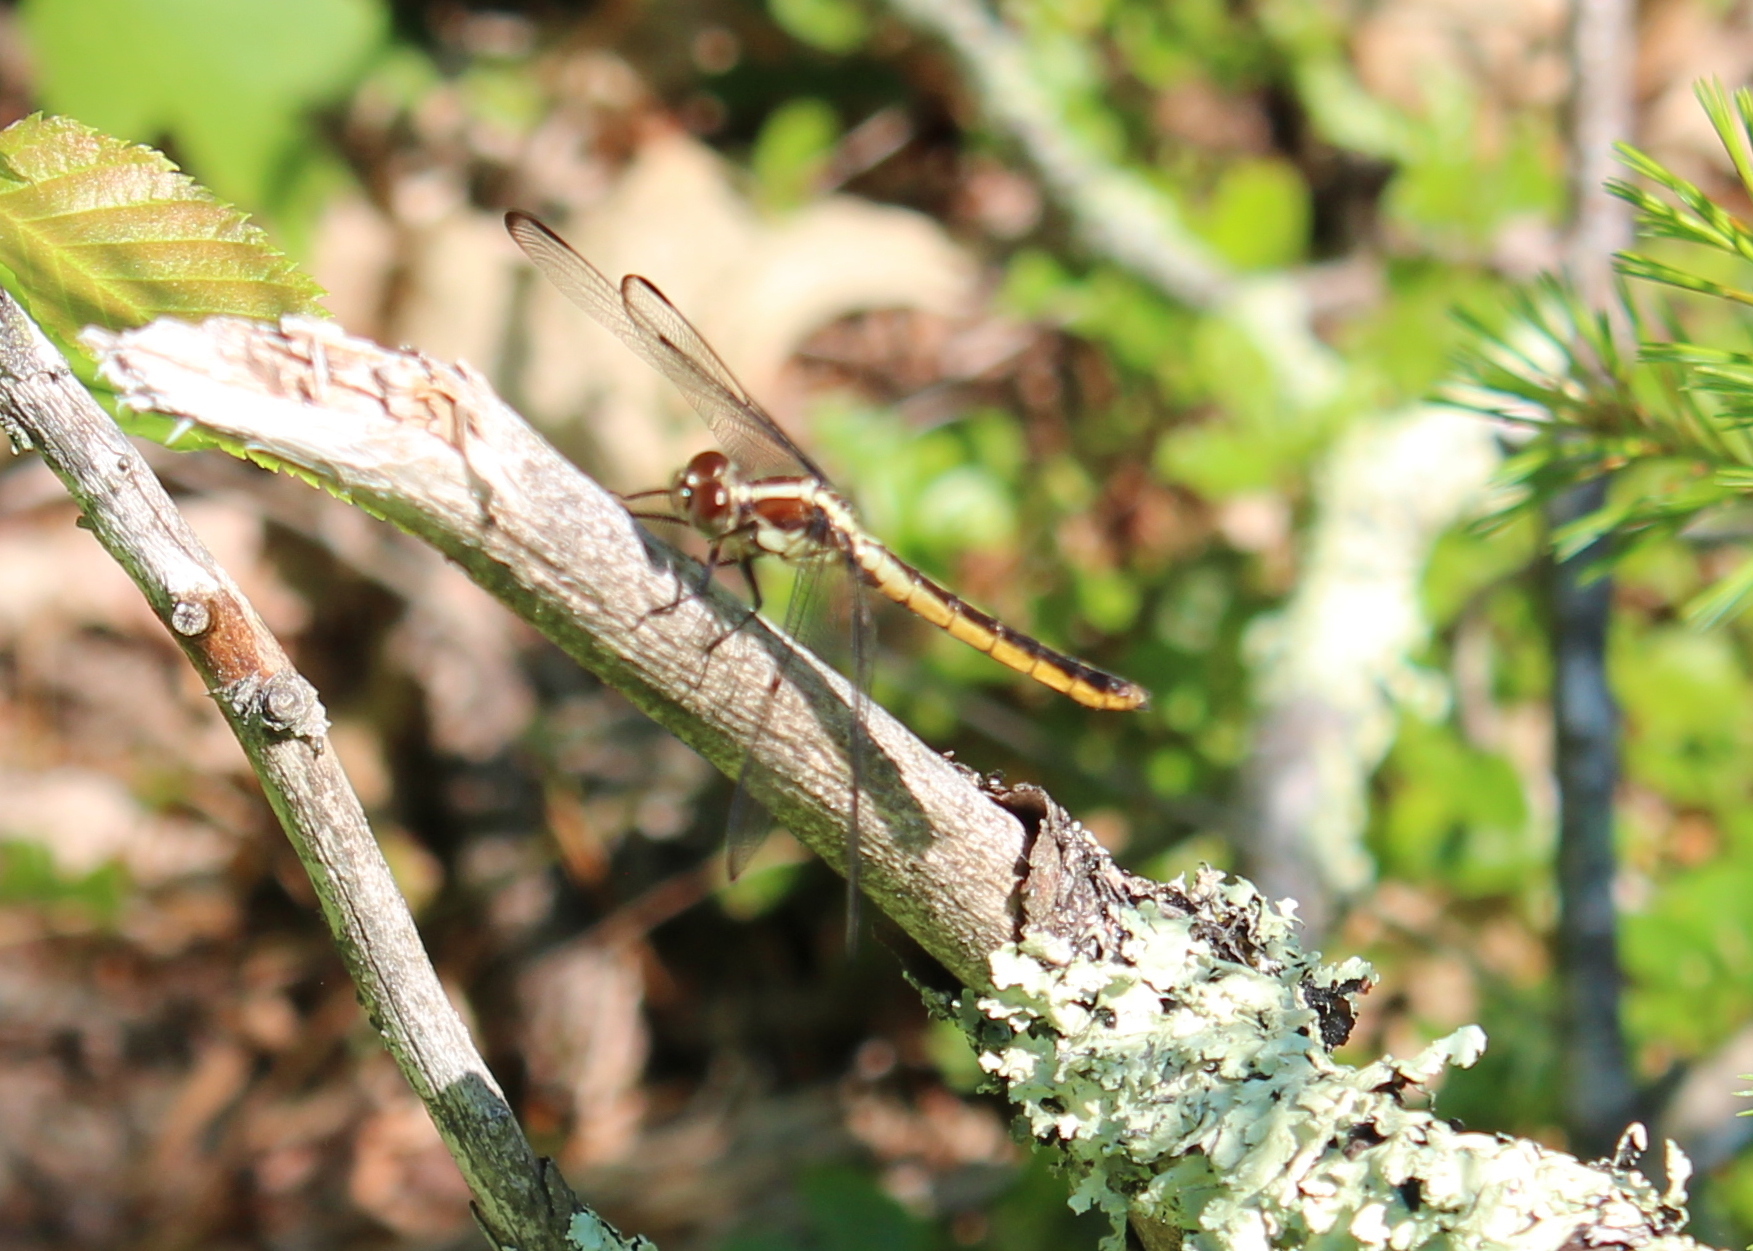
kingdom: Animalia
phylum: Arthropoda
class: Insecta
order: Odonata
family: Libellulidae
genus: Libellula
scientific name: Libellula incesta
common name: Slaty skimmer
